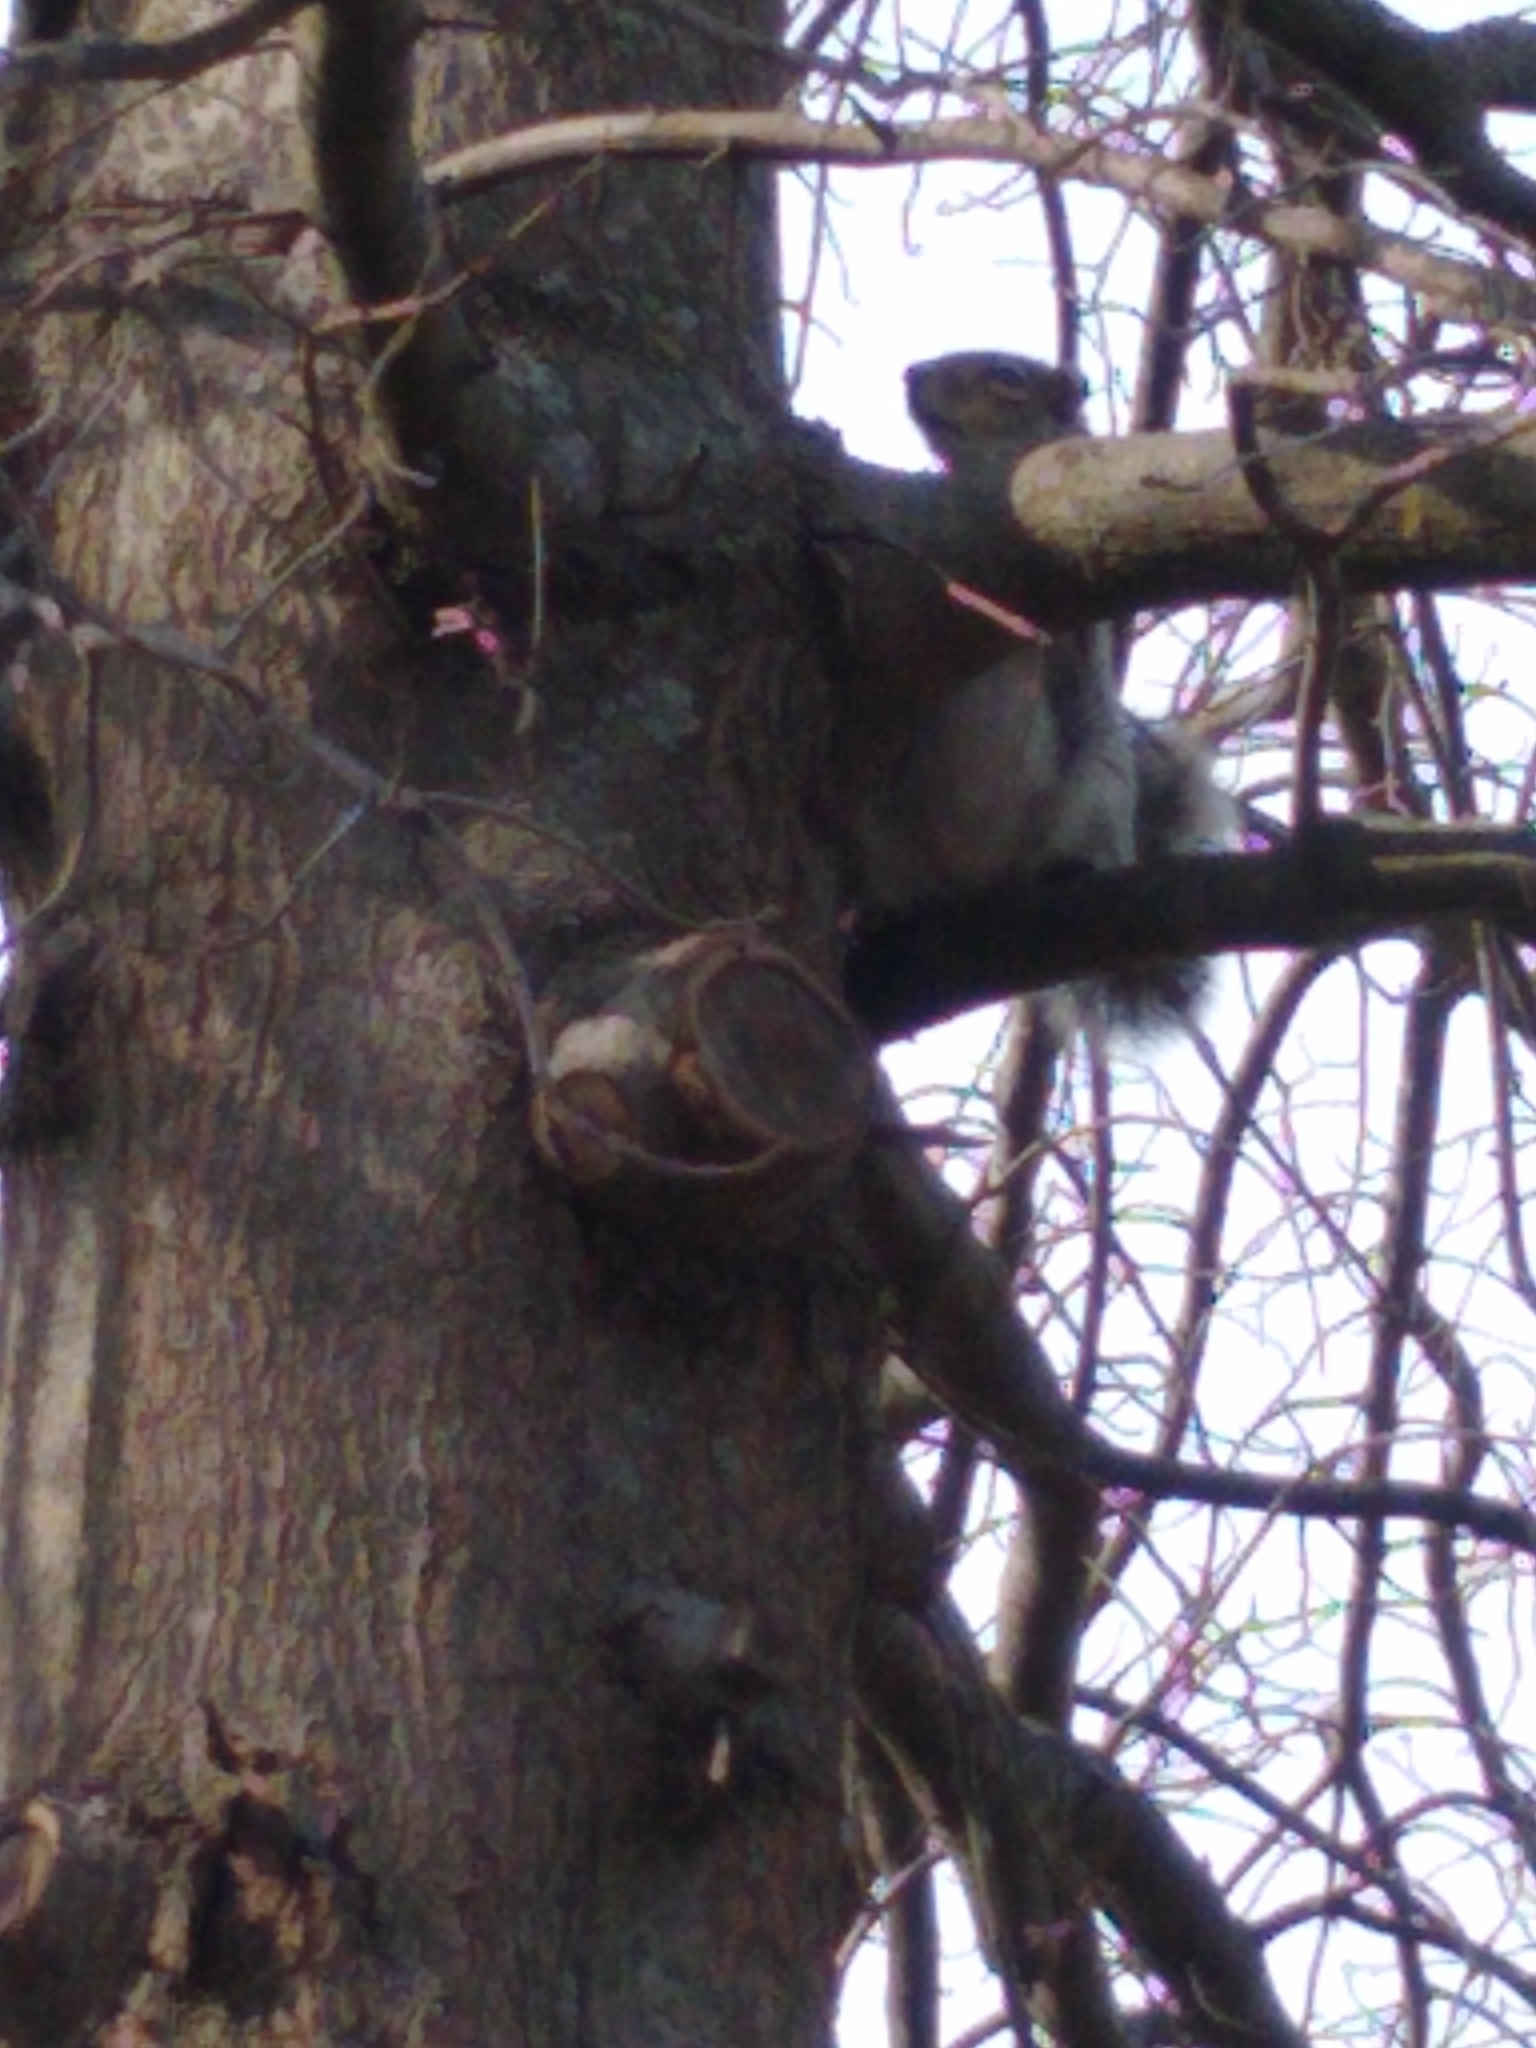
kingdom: Animalia
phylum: Chordata
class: Mammalia
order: Rodentia
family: Sciuridae
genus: Sciurus
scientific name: Sciurus carolinensis
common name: Eastern gray squirrel
